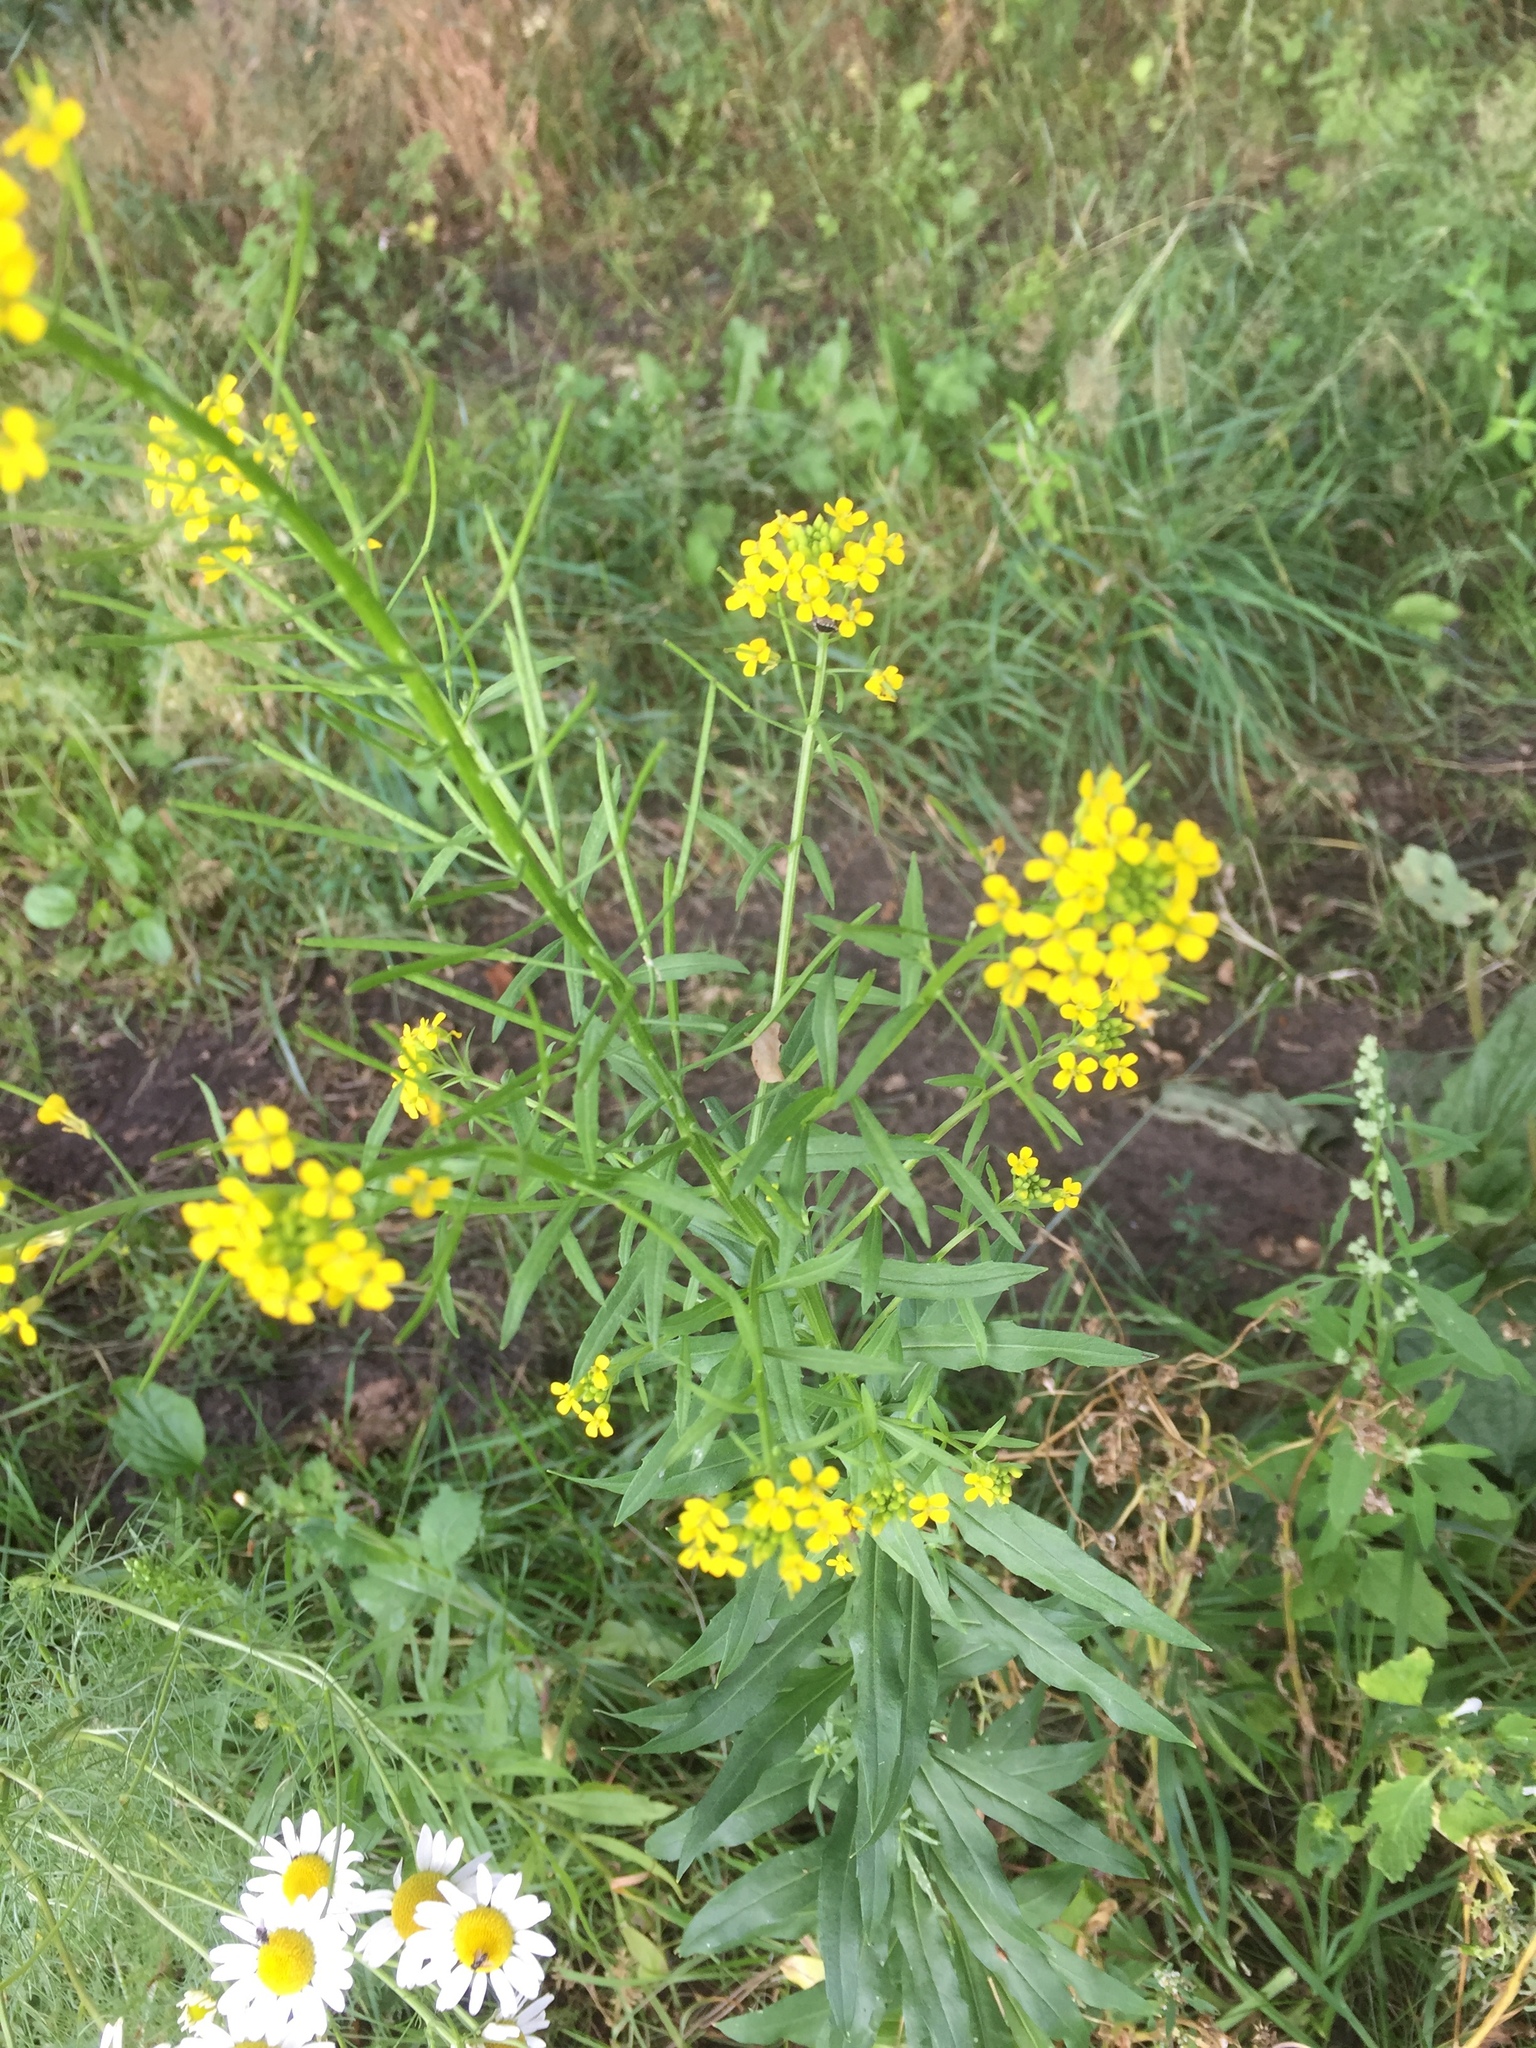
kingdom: Plantae
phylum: Tracheophyta
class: Magnoliopsida
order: Brassicales
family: Brassicaceae
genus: Erysimum
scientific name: Erysimum cheiranthoides
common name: Treacle mustard
